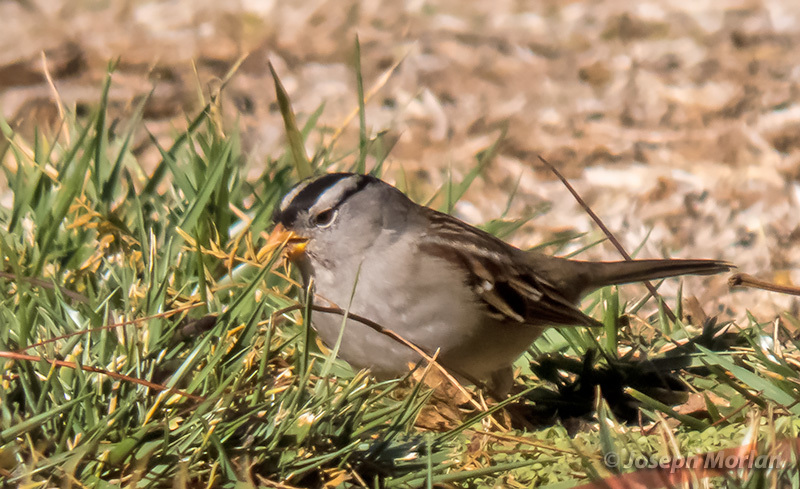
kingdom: Animalia
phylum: Chordata
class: Aves
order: Passeriformes
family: Passerellidae
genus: Zonotrichia
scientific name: Zonotrichia leucophrys
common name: White-crowned sparrow
